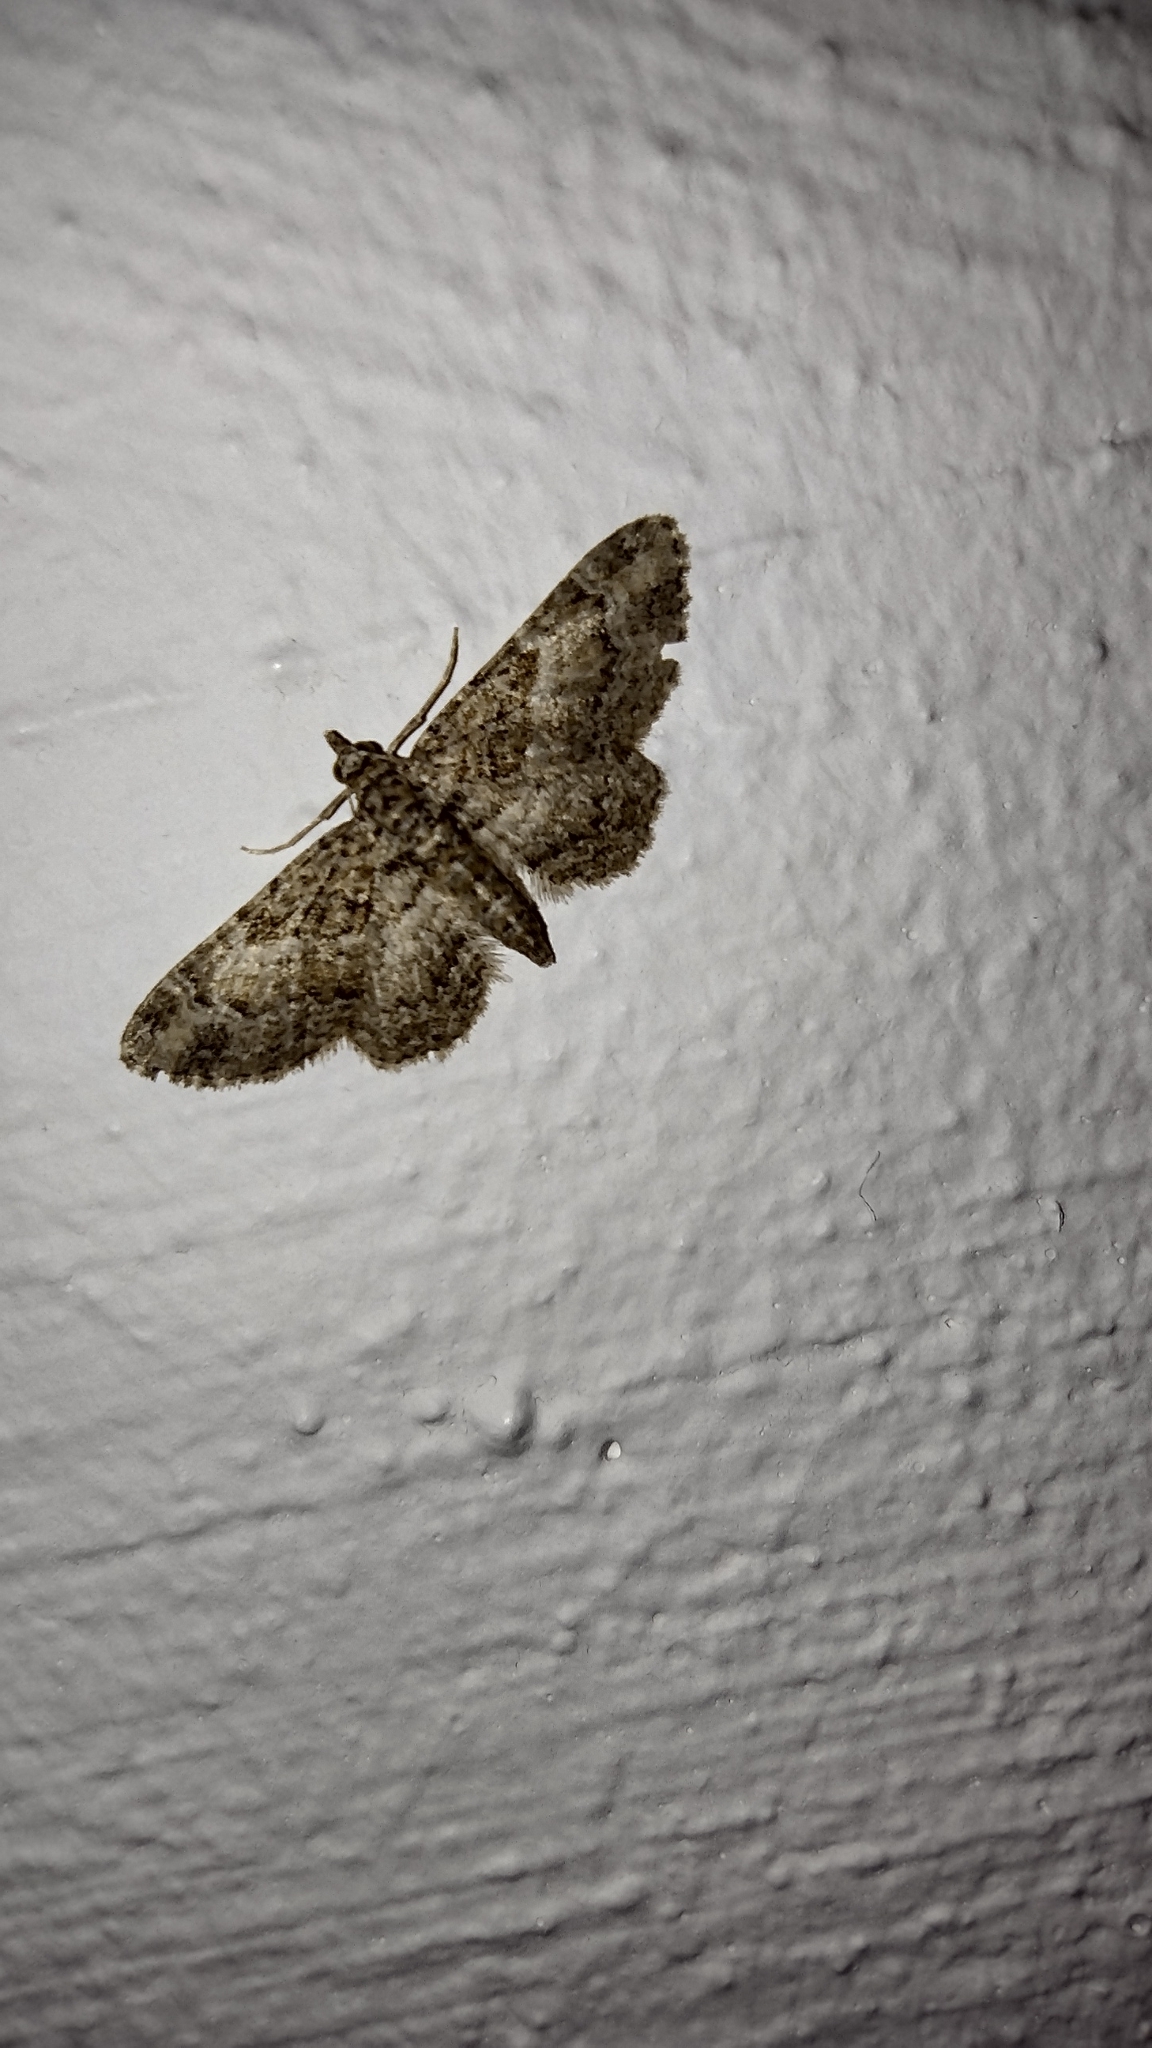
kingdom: Animalia
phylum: Arthropoda
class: Insecta
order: Lepidoptera
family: Geometridae
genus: Gymnoscelis
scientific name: Gymnoscelis rufifasciata
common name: Double-striped pug
